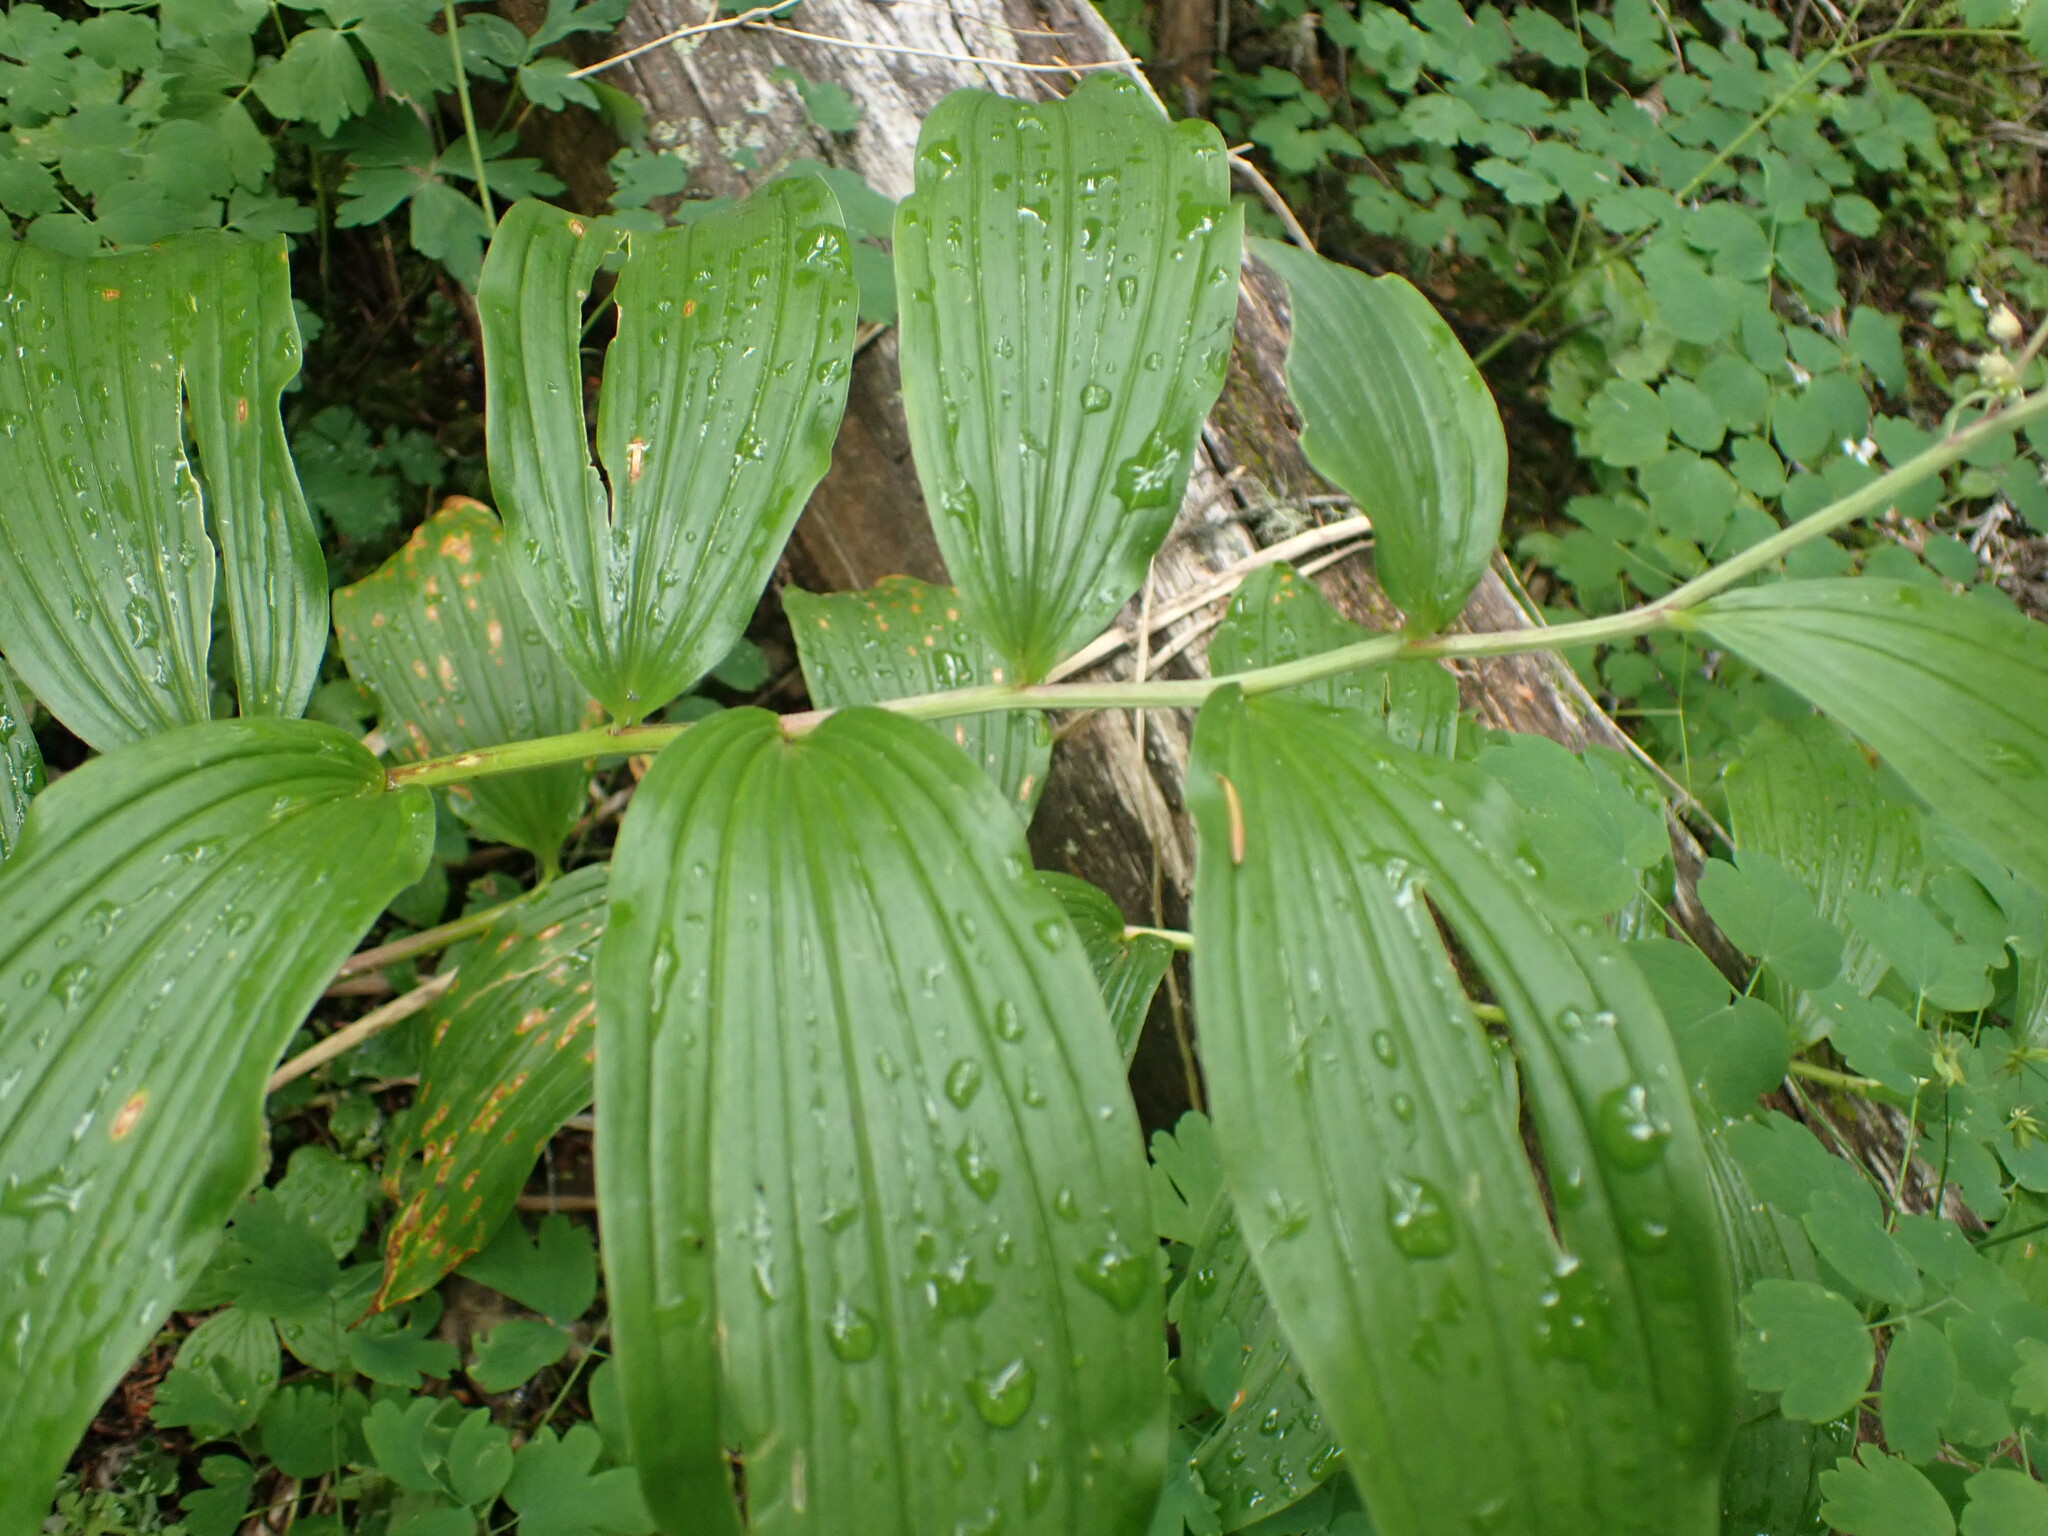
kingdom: Plantae
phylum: Tracheophyta
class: Liliopsida
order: Asparagales
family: Asparagaceae
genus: Maianthemum
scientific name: Maianthemum racemosum
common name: False spikenard
